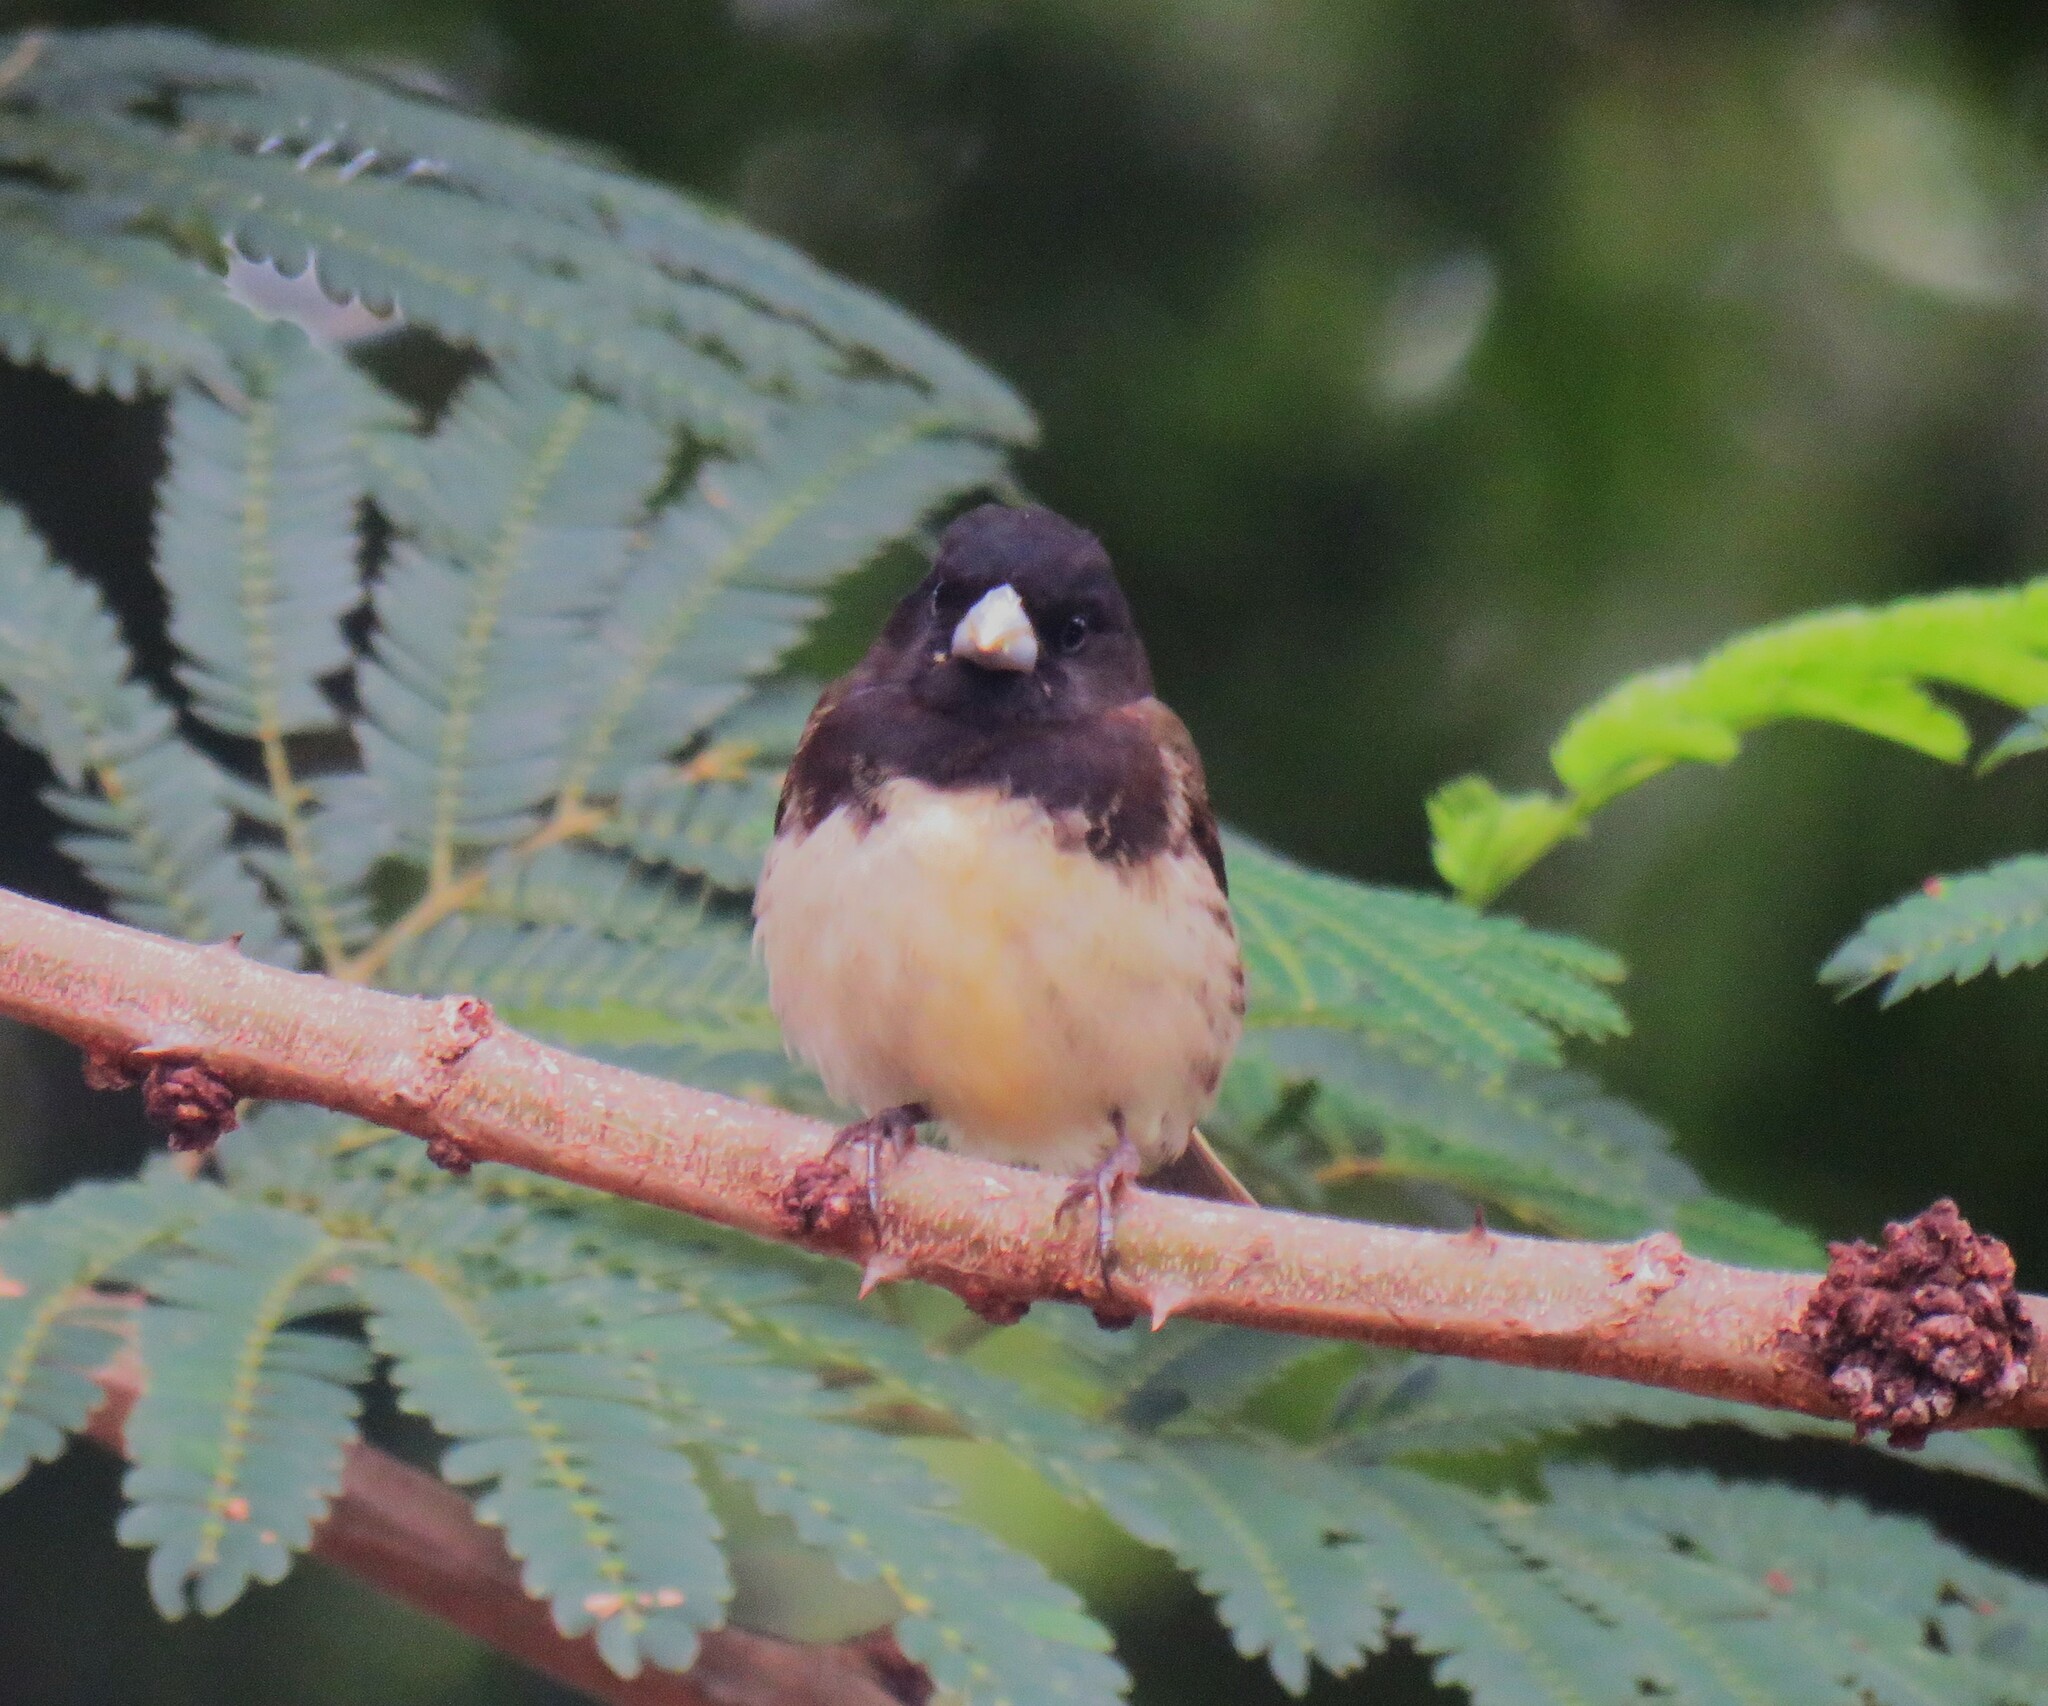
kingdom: Animalia
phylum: Chordata
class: Aves
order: Passeriformes
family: Thraupidae
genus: Sporophila
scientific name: Sporophila nigricollis
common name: Yellow-bellied seedeater
